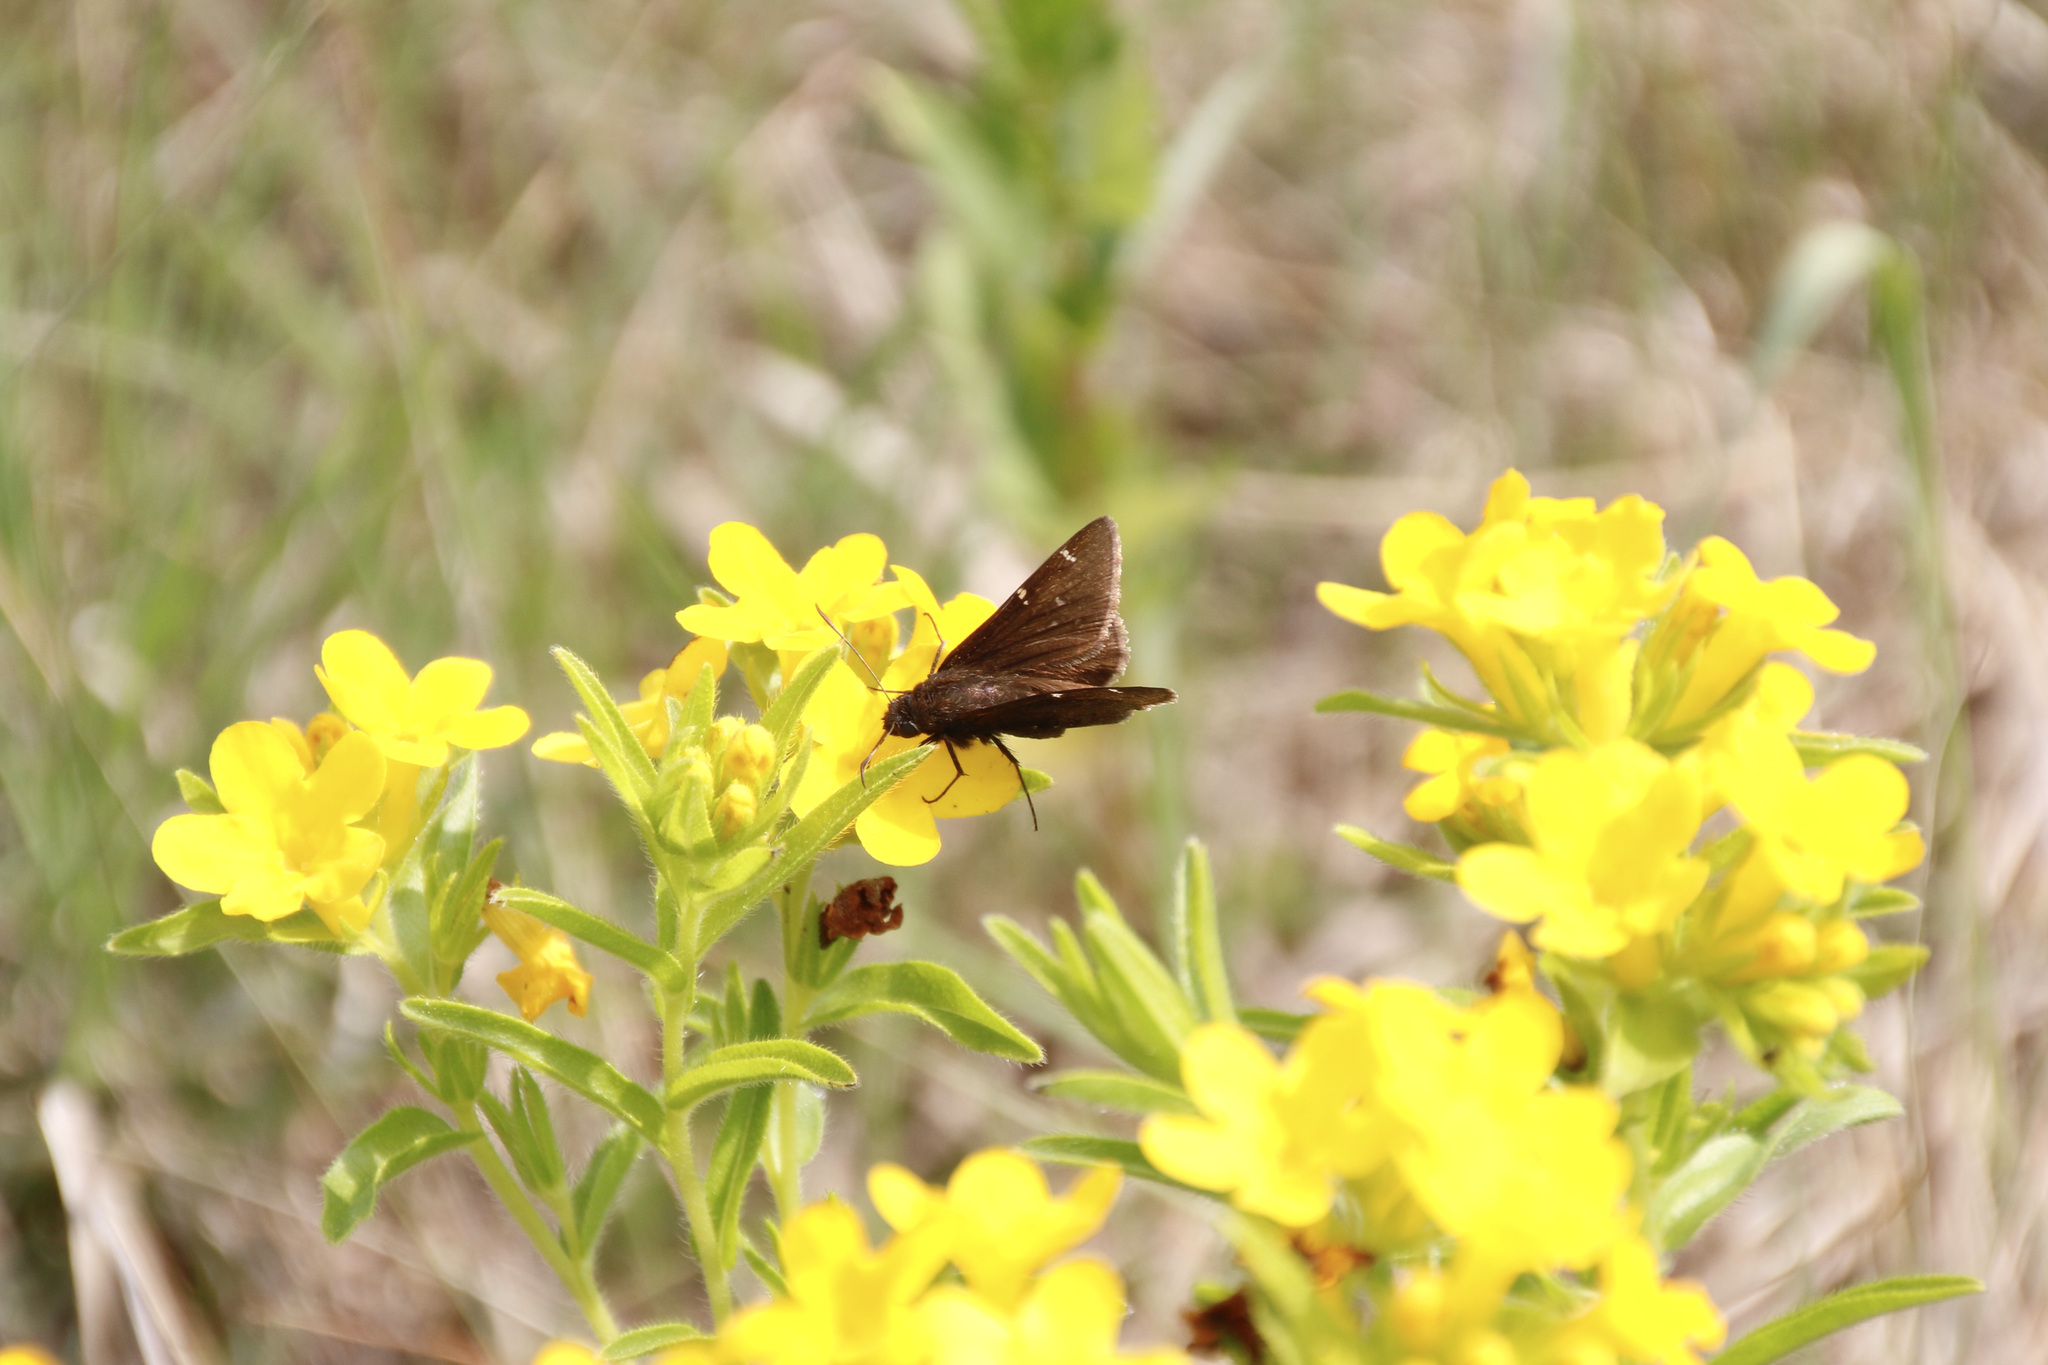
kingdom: Animalia
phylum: Arthropoda
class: Insecta
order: Lepidoptera
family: Hesperiidae
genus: Thorybes
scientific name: Thorybes pylades
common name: Northern cloudywing
